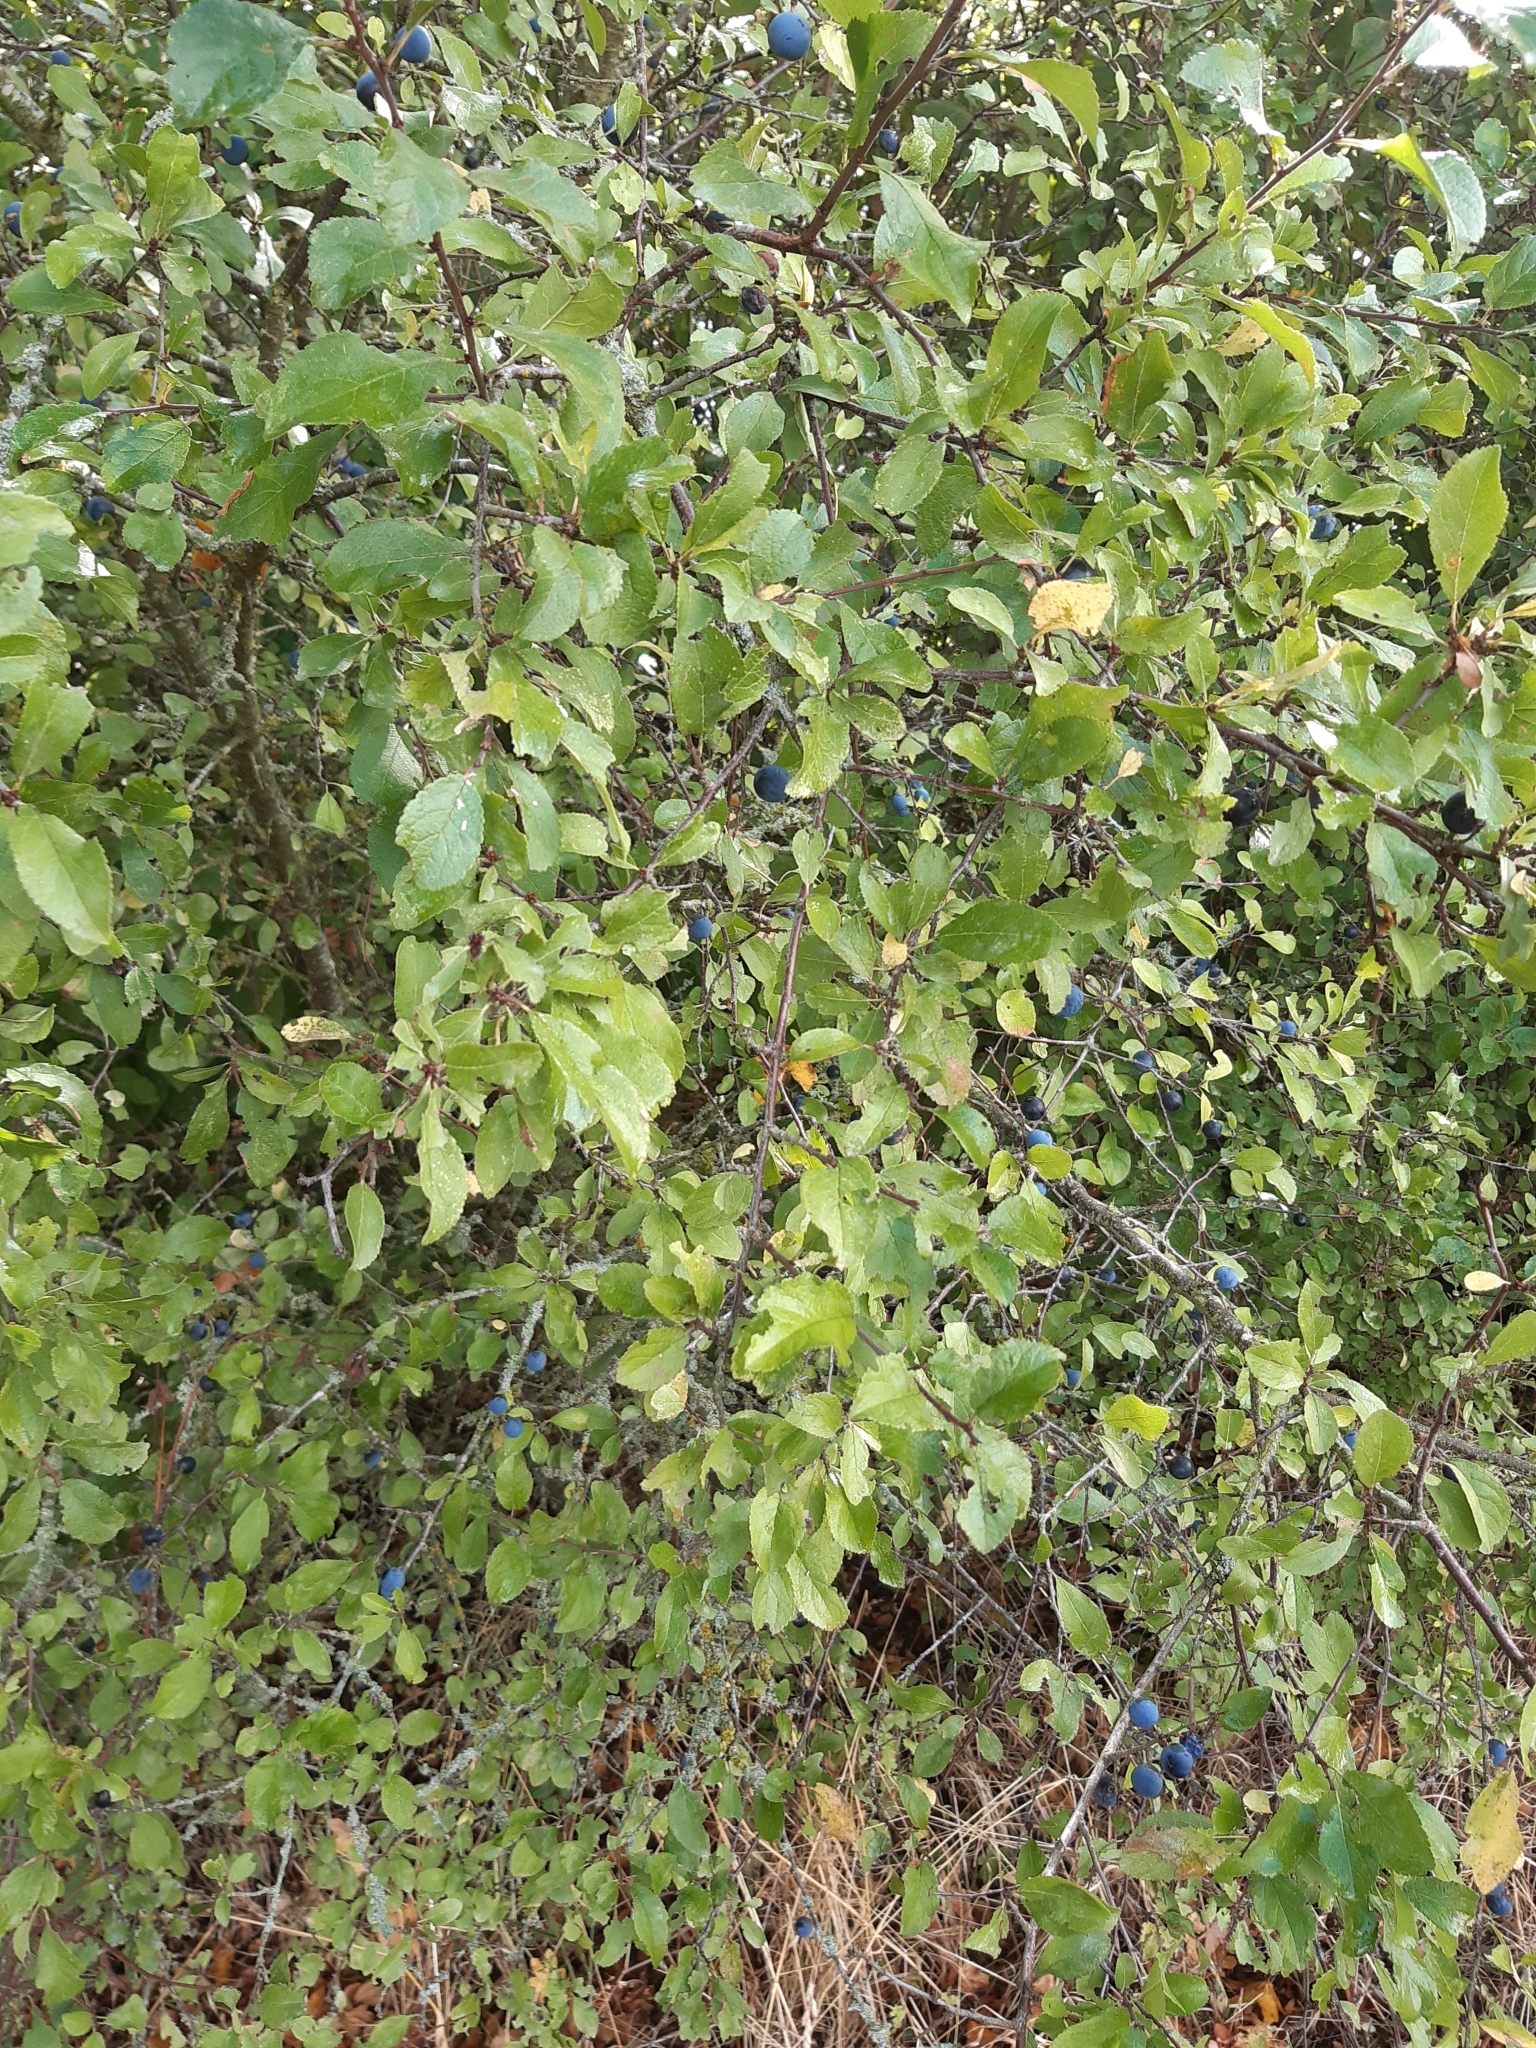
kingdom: Plantae
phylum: Tracheophyta
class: Magnoliopsida
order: Rosales
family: Rosaceae
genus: Prunus
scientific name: Prunus spinosa
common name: Blackthorn
